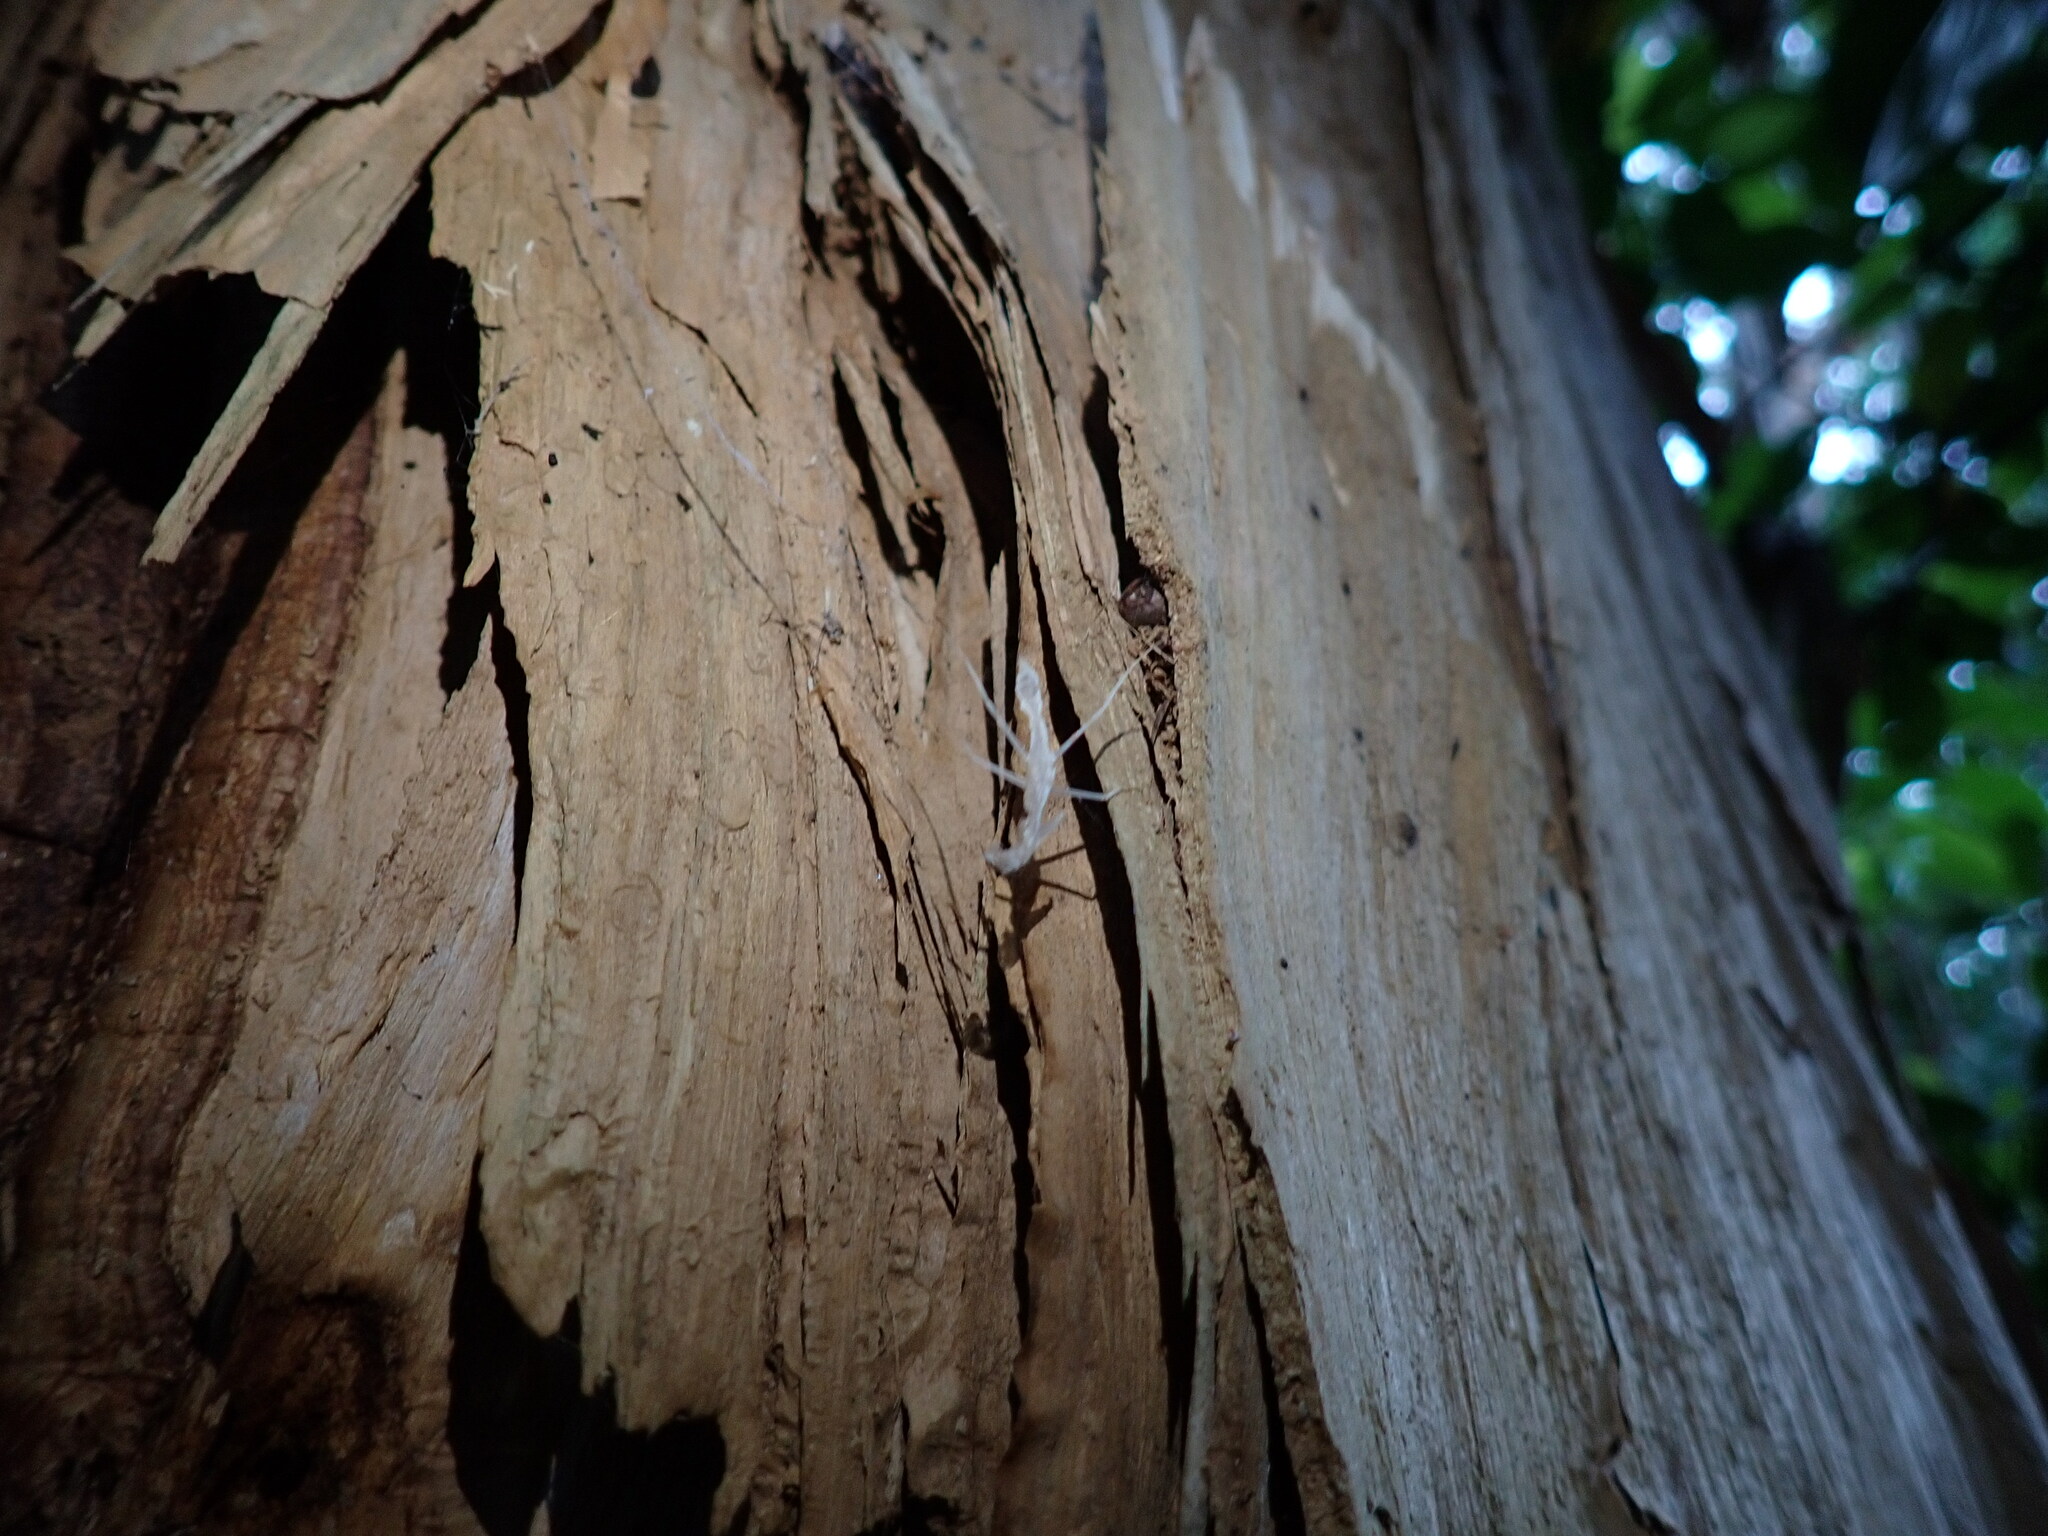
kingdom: Animalia
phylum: Arthropoda
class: Insecta
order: Mantodea
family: Nanomantidae
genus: Ima
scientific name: Ima fusca
